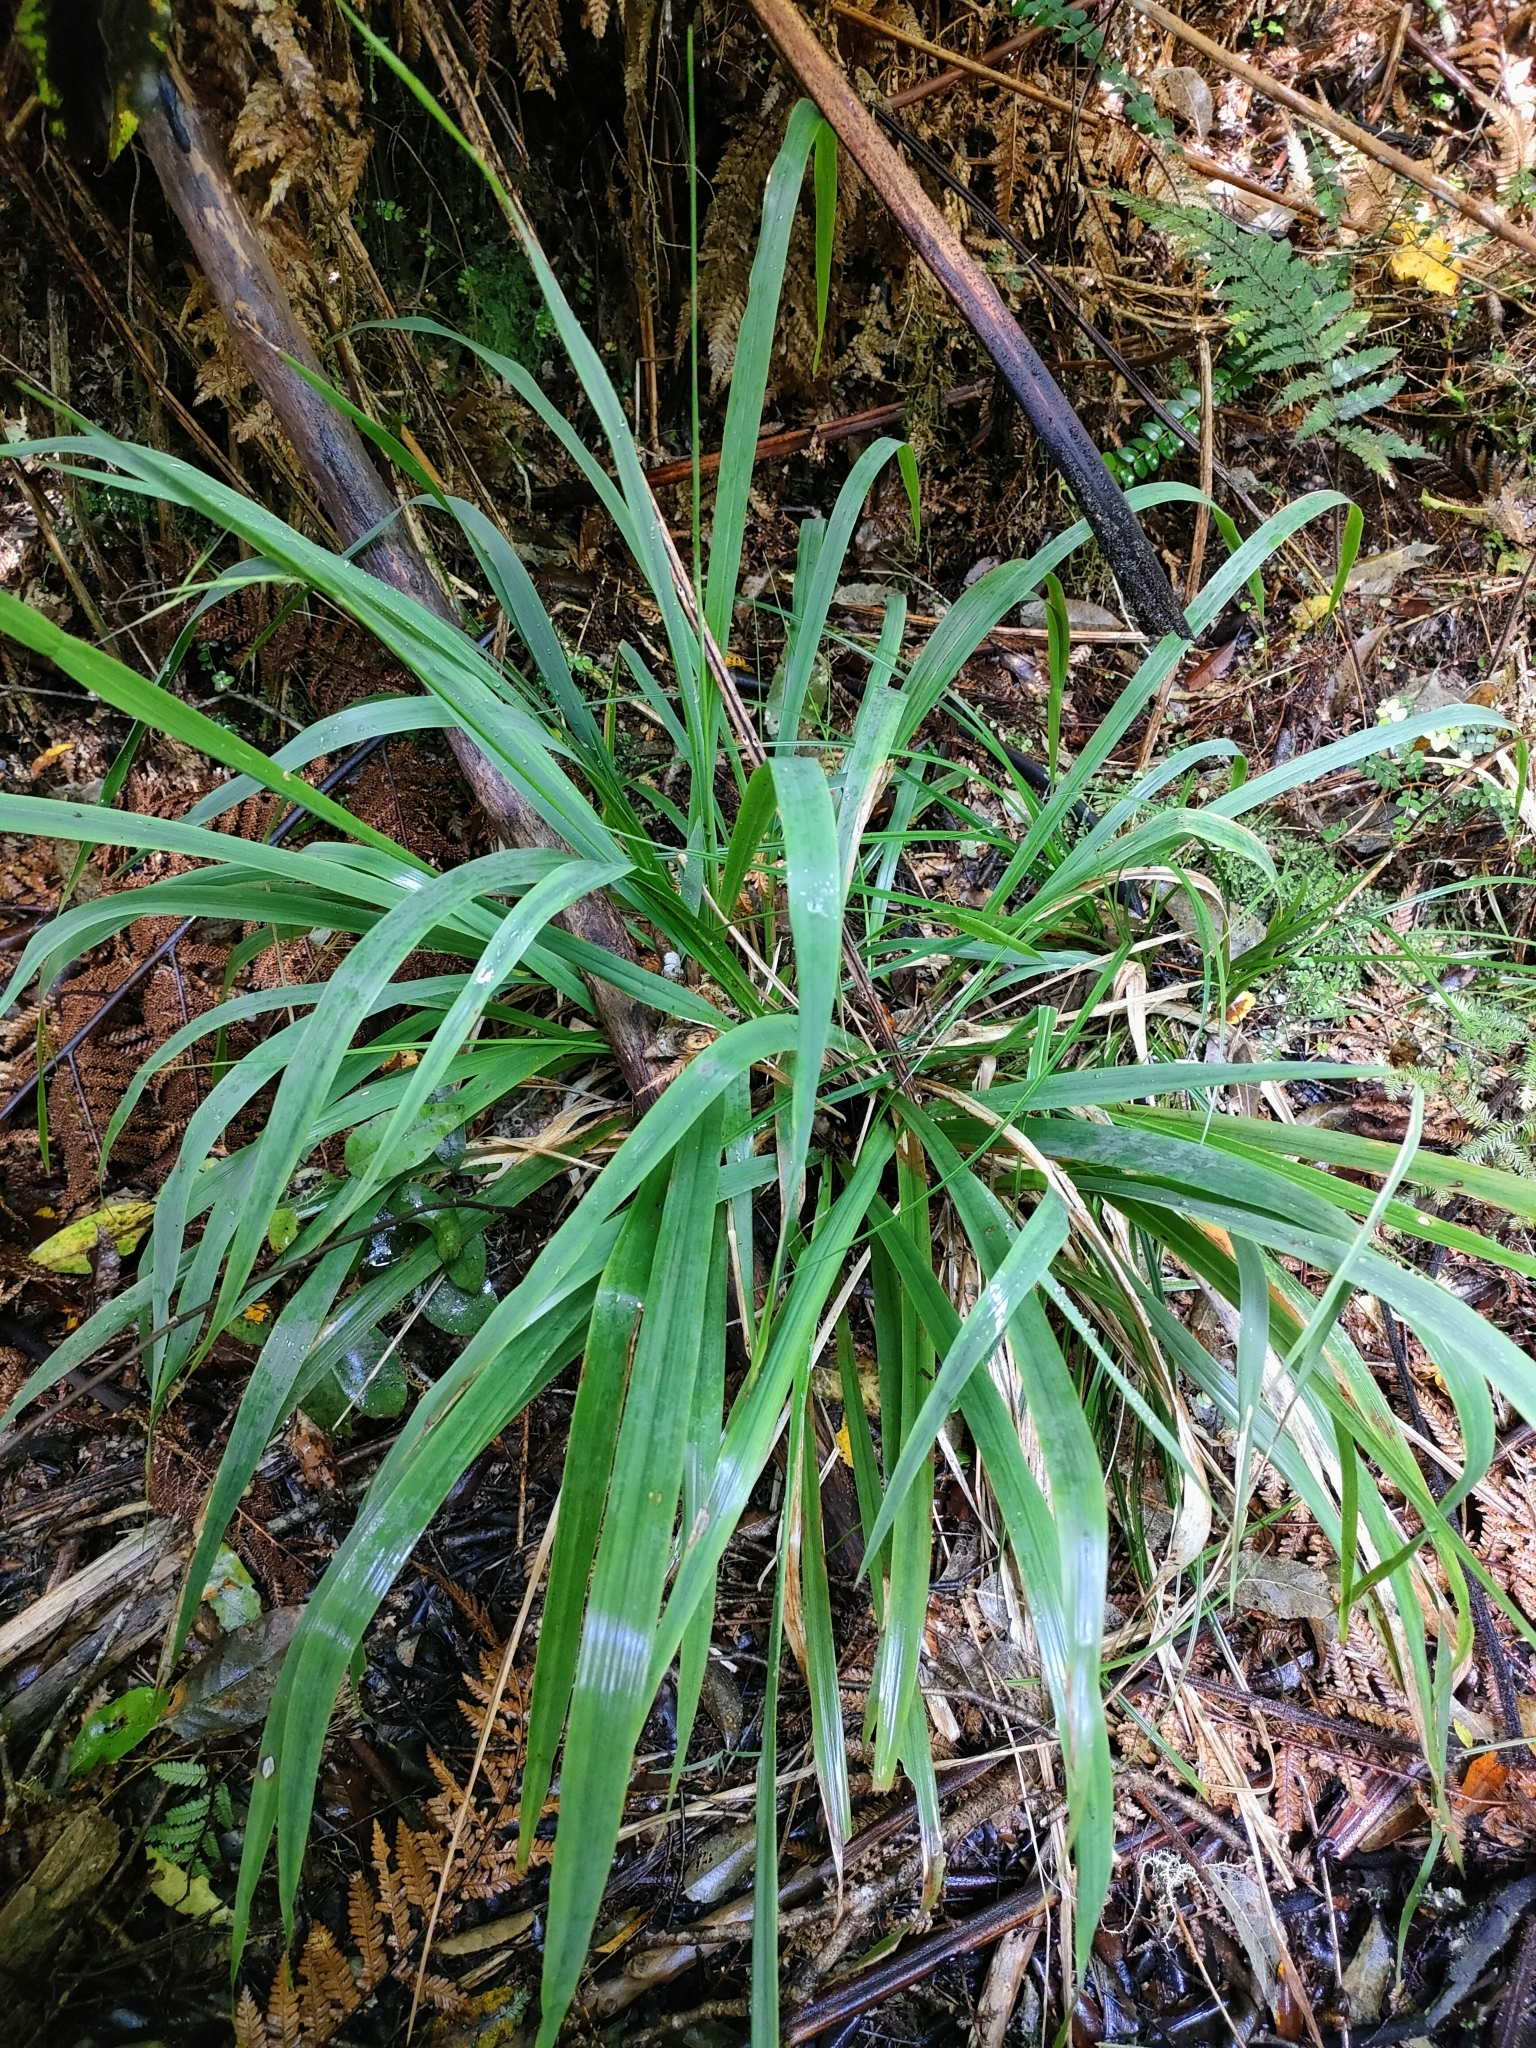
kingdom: Plantae
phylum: Tracheophyta
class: Liliopsida
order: Poales
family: Poaceae
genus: Ehrharta
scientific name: Ehrharta diplax
